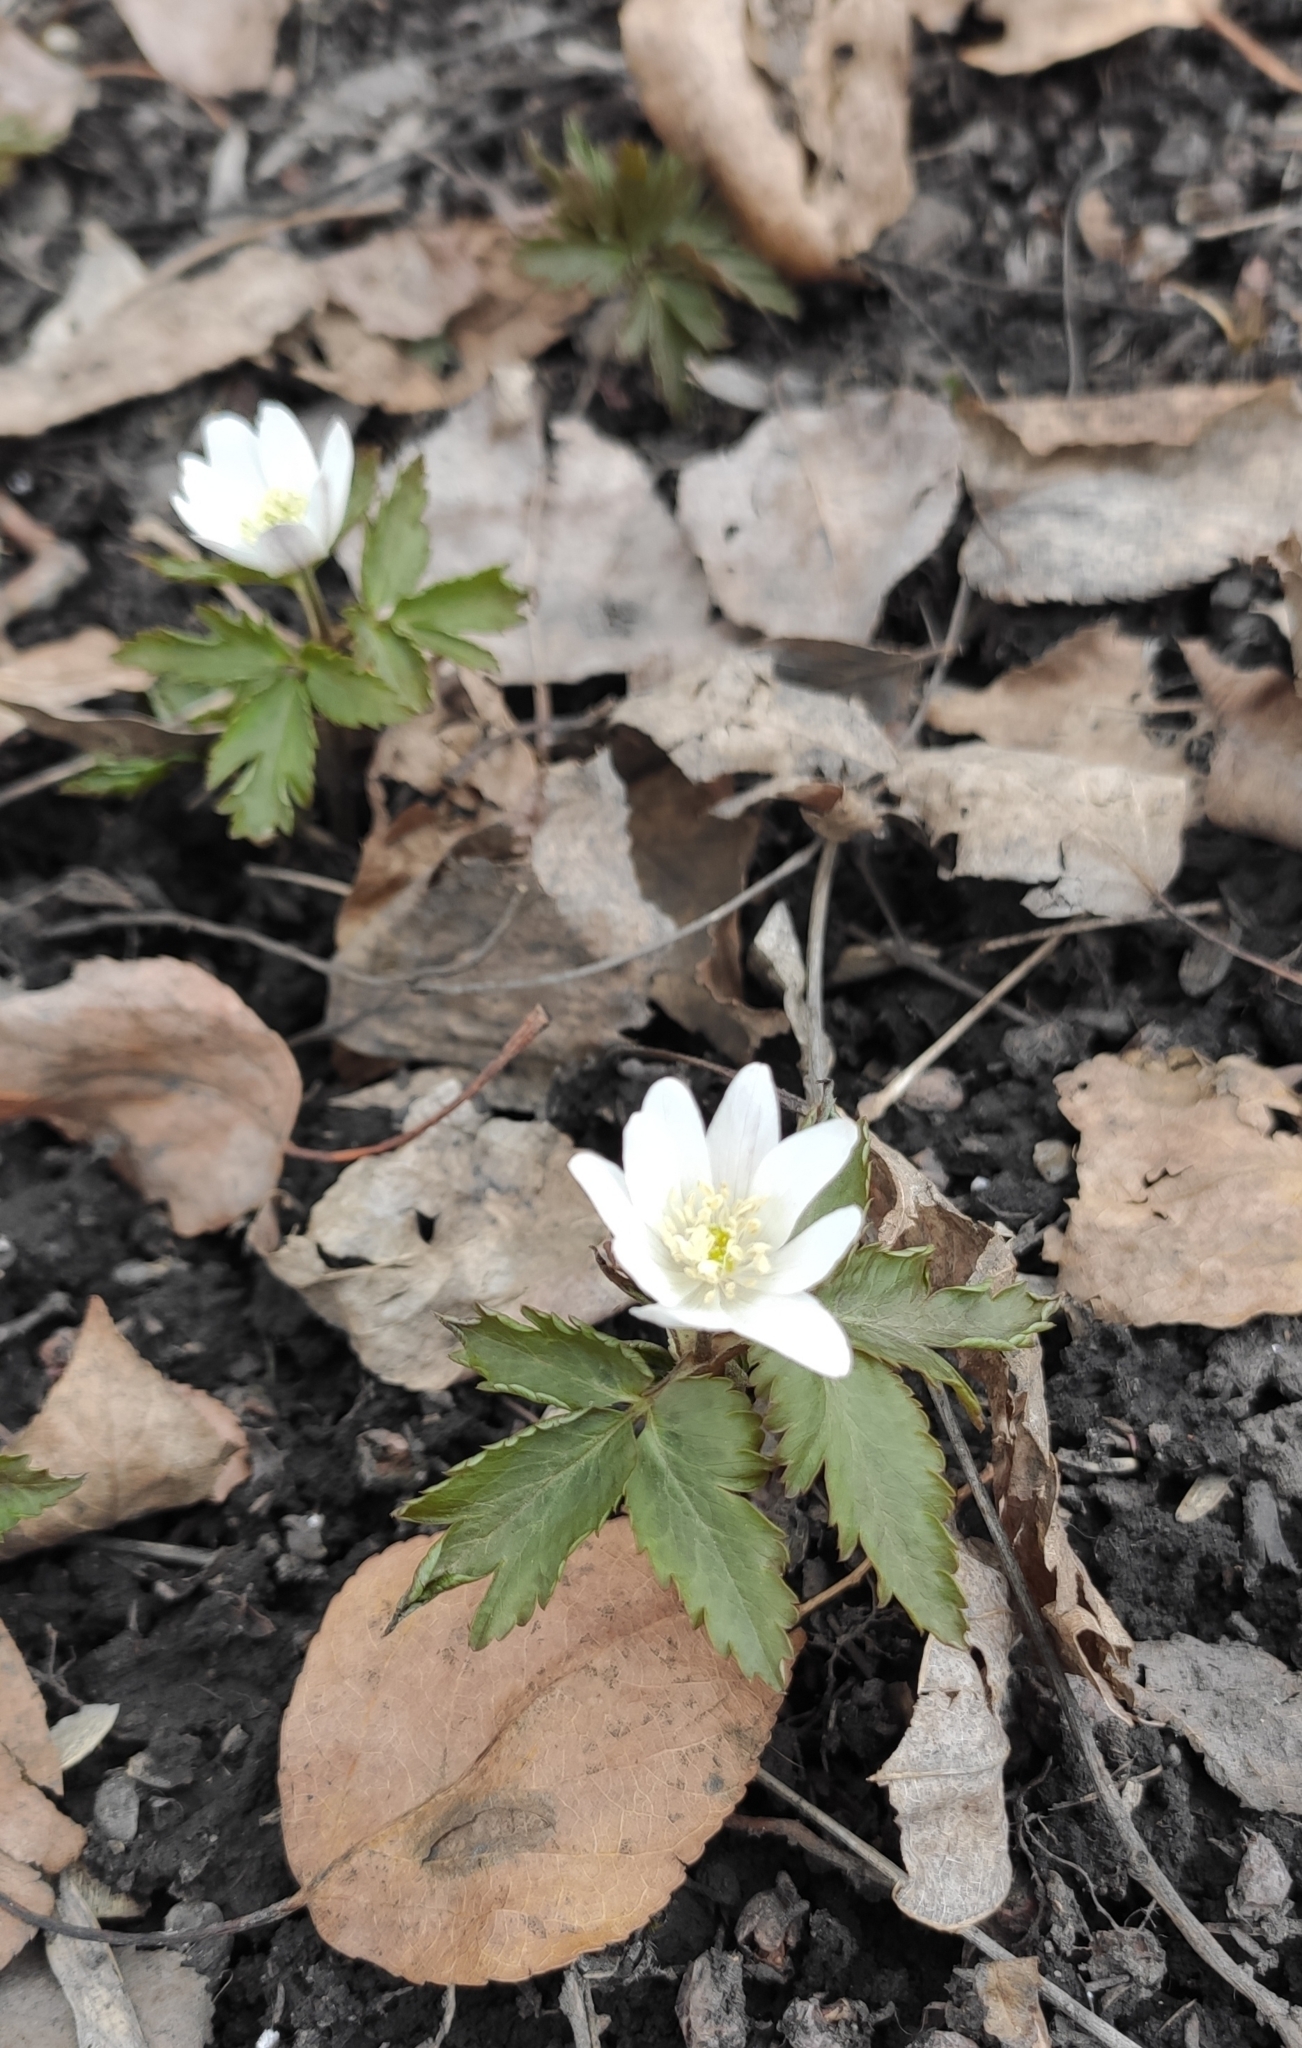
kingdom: Plantae
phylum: Tracheophyta
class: Magnoliopsida
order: Ranunculales
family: Ranunculaceae
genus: Anemone
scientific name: Anemone altaica
